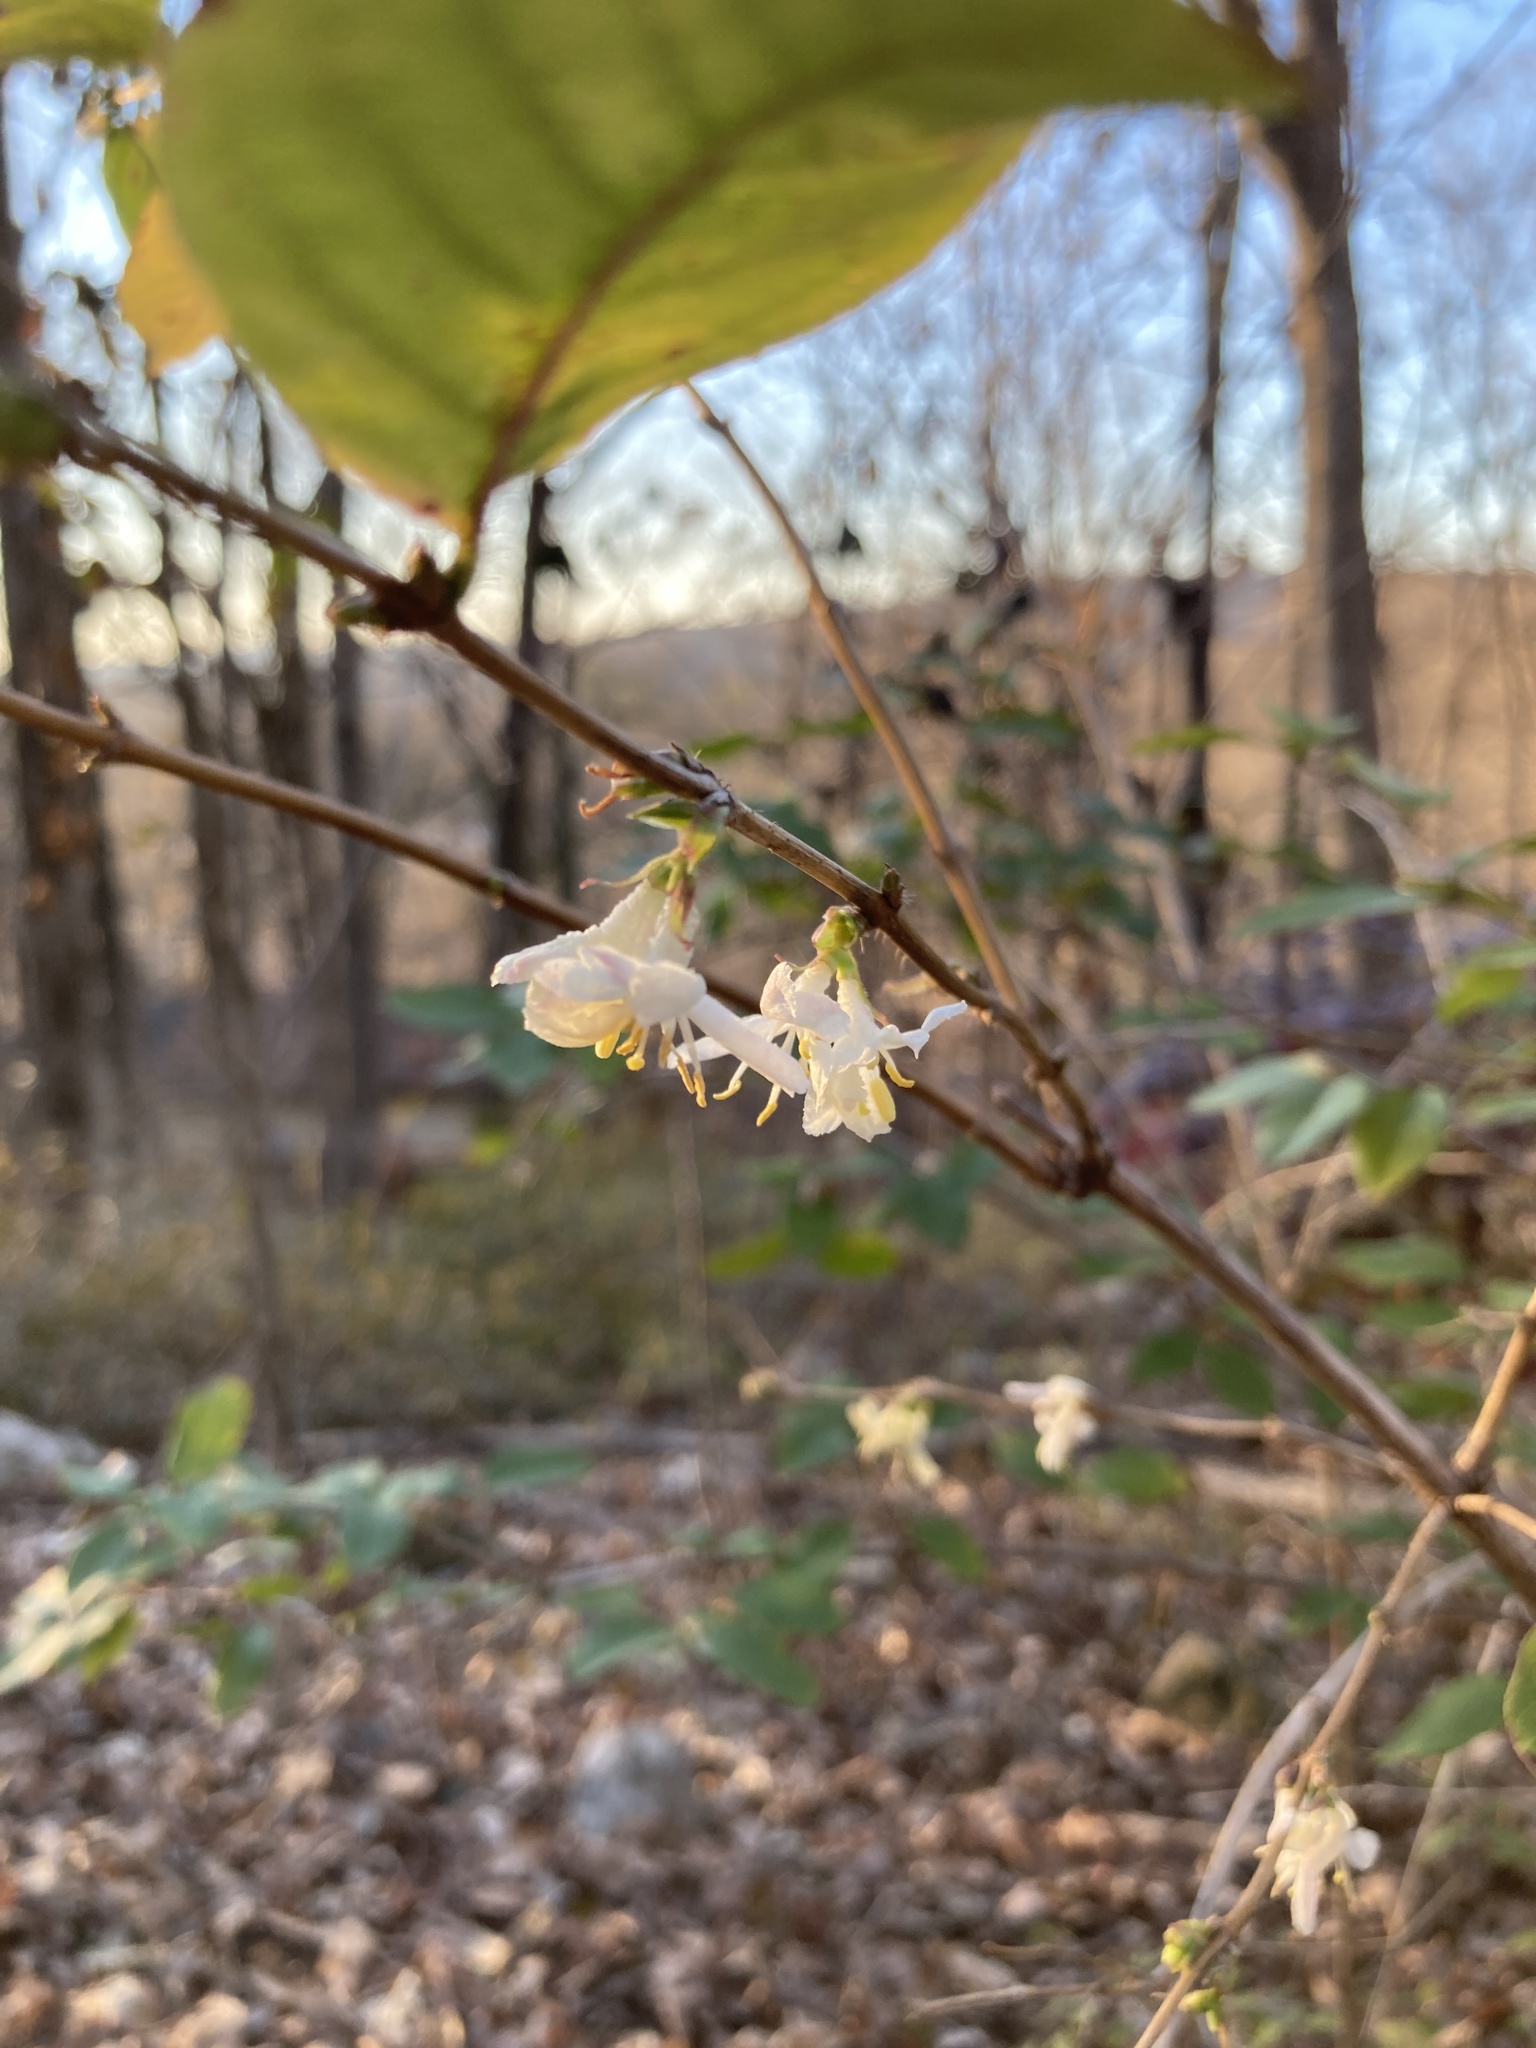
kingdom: Plantae
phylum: Tracheophyta
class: Magnoliopsida
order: Dipsacales
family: Caprifoliaceae
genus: Lonicera
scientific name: Lonicera fragrantissima
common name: Fragrant honeysuckle
